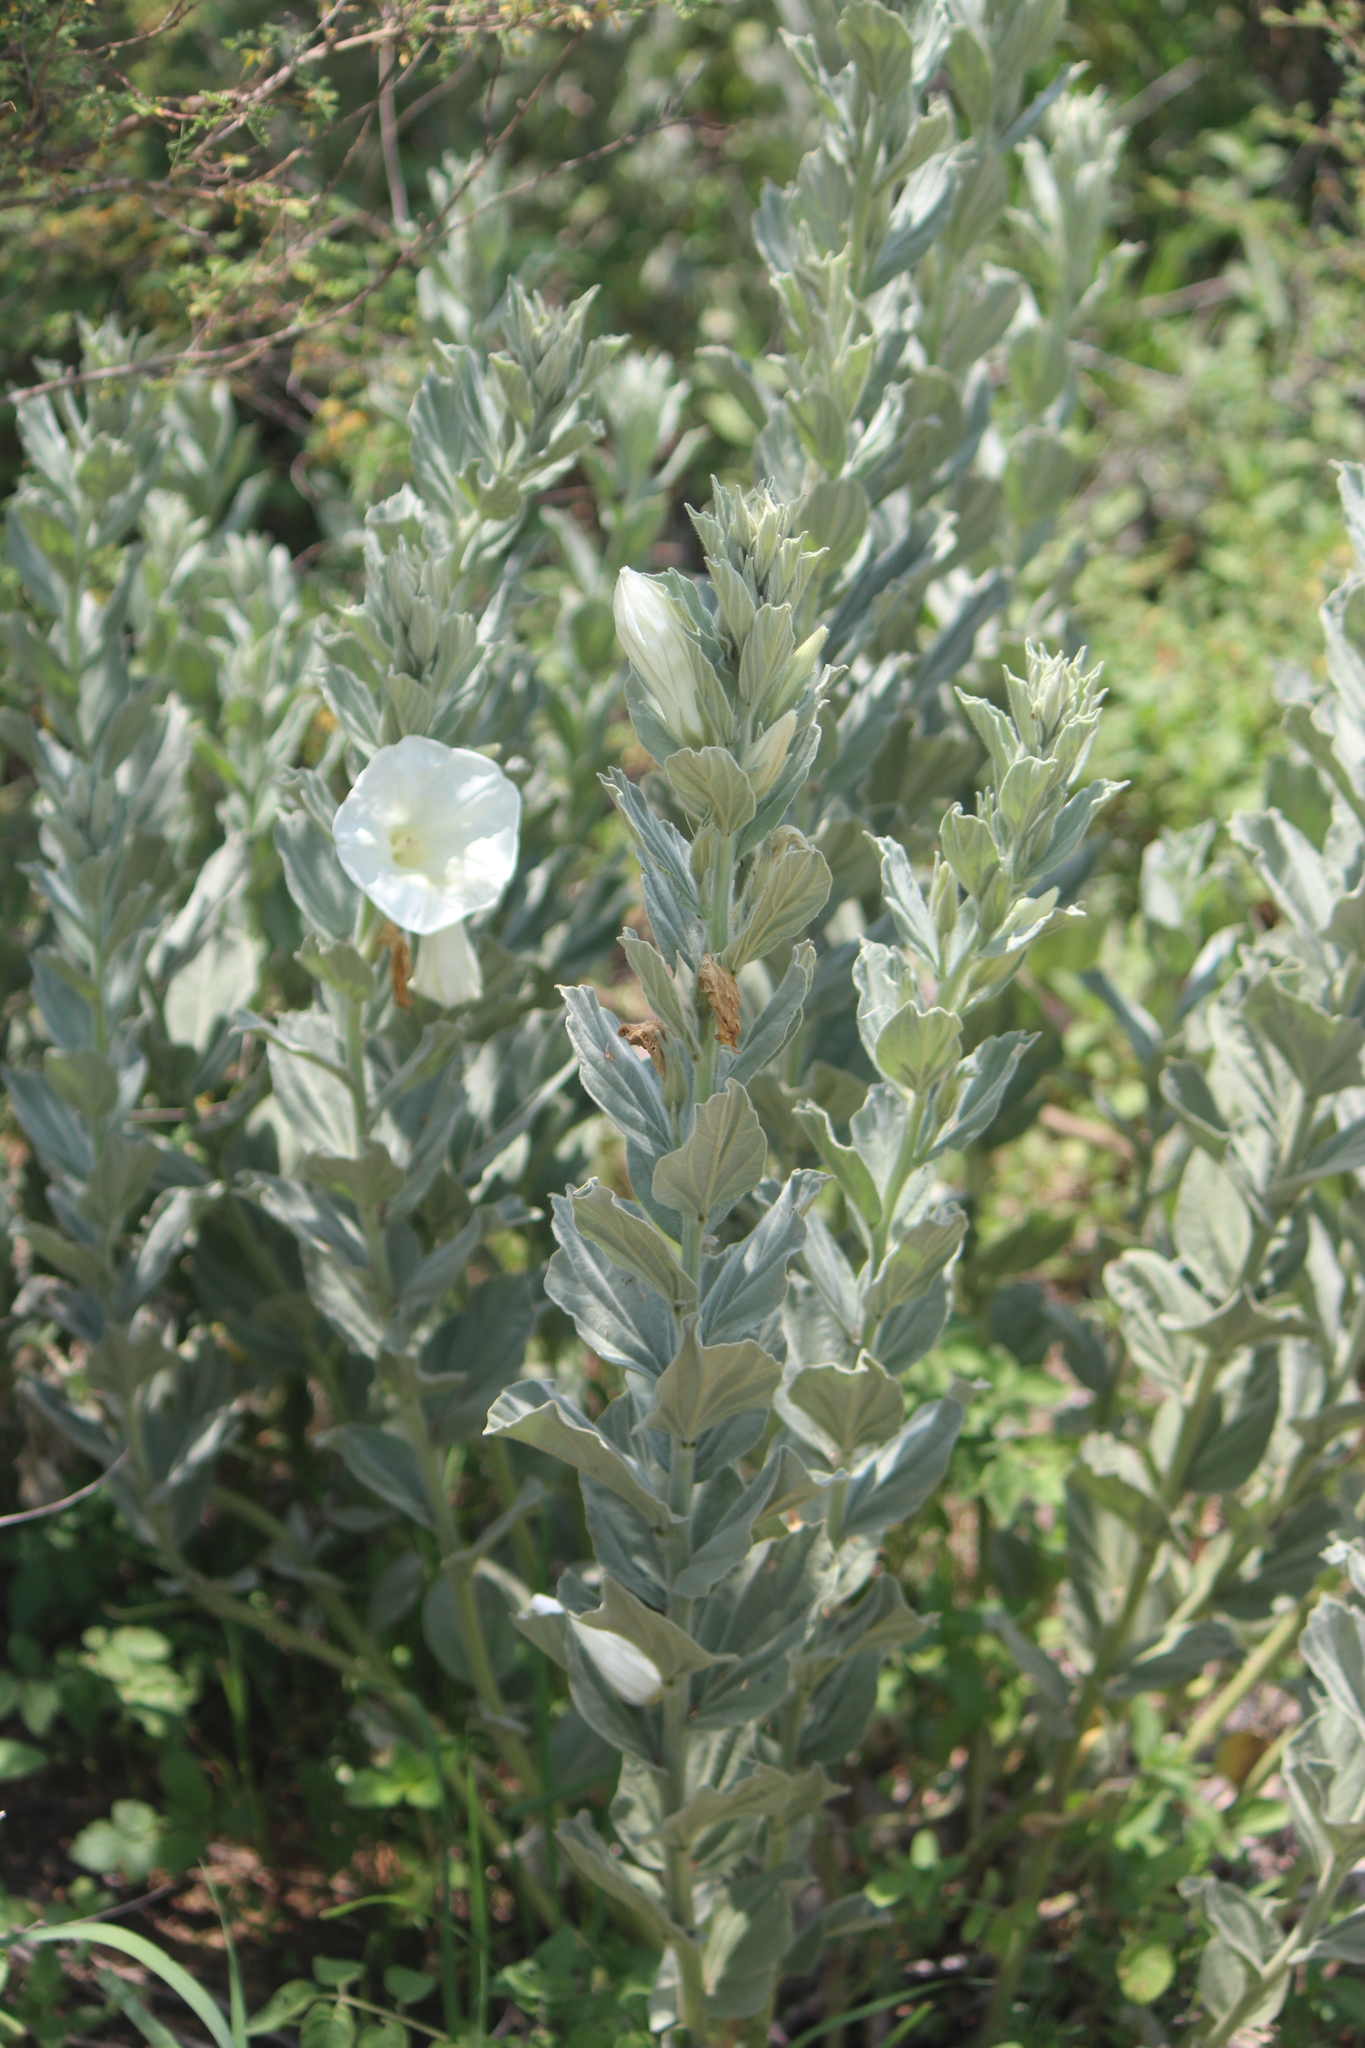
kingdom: Plantae
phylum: Tracheophyta
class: Magnoliopsida
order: Solanales
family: Convolvulaceae
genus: Ipomoea
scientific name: Ipomoea ciervensis
